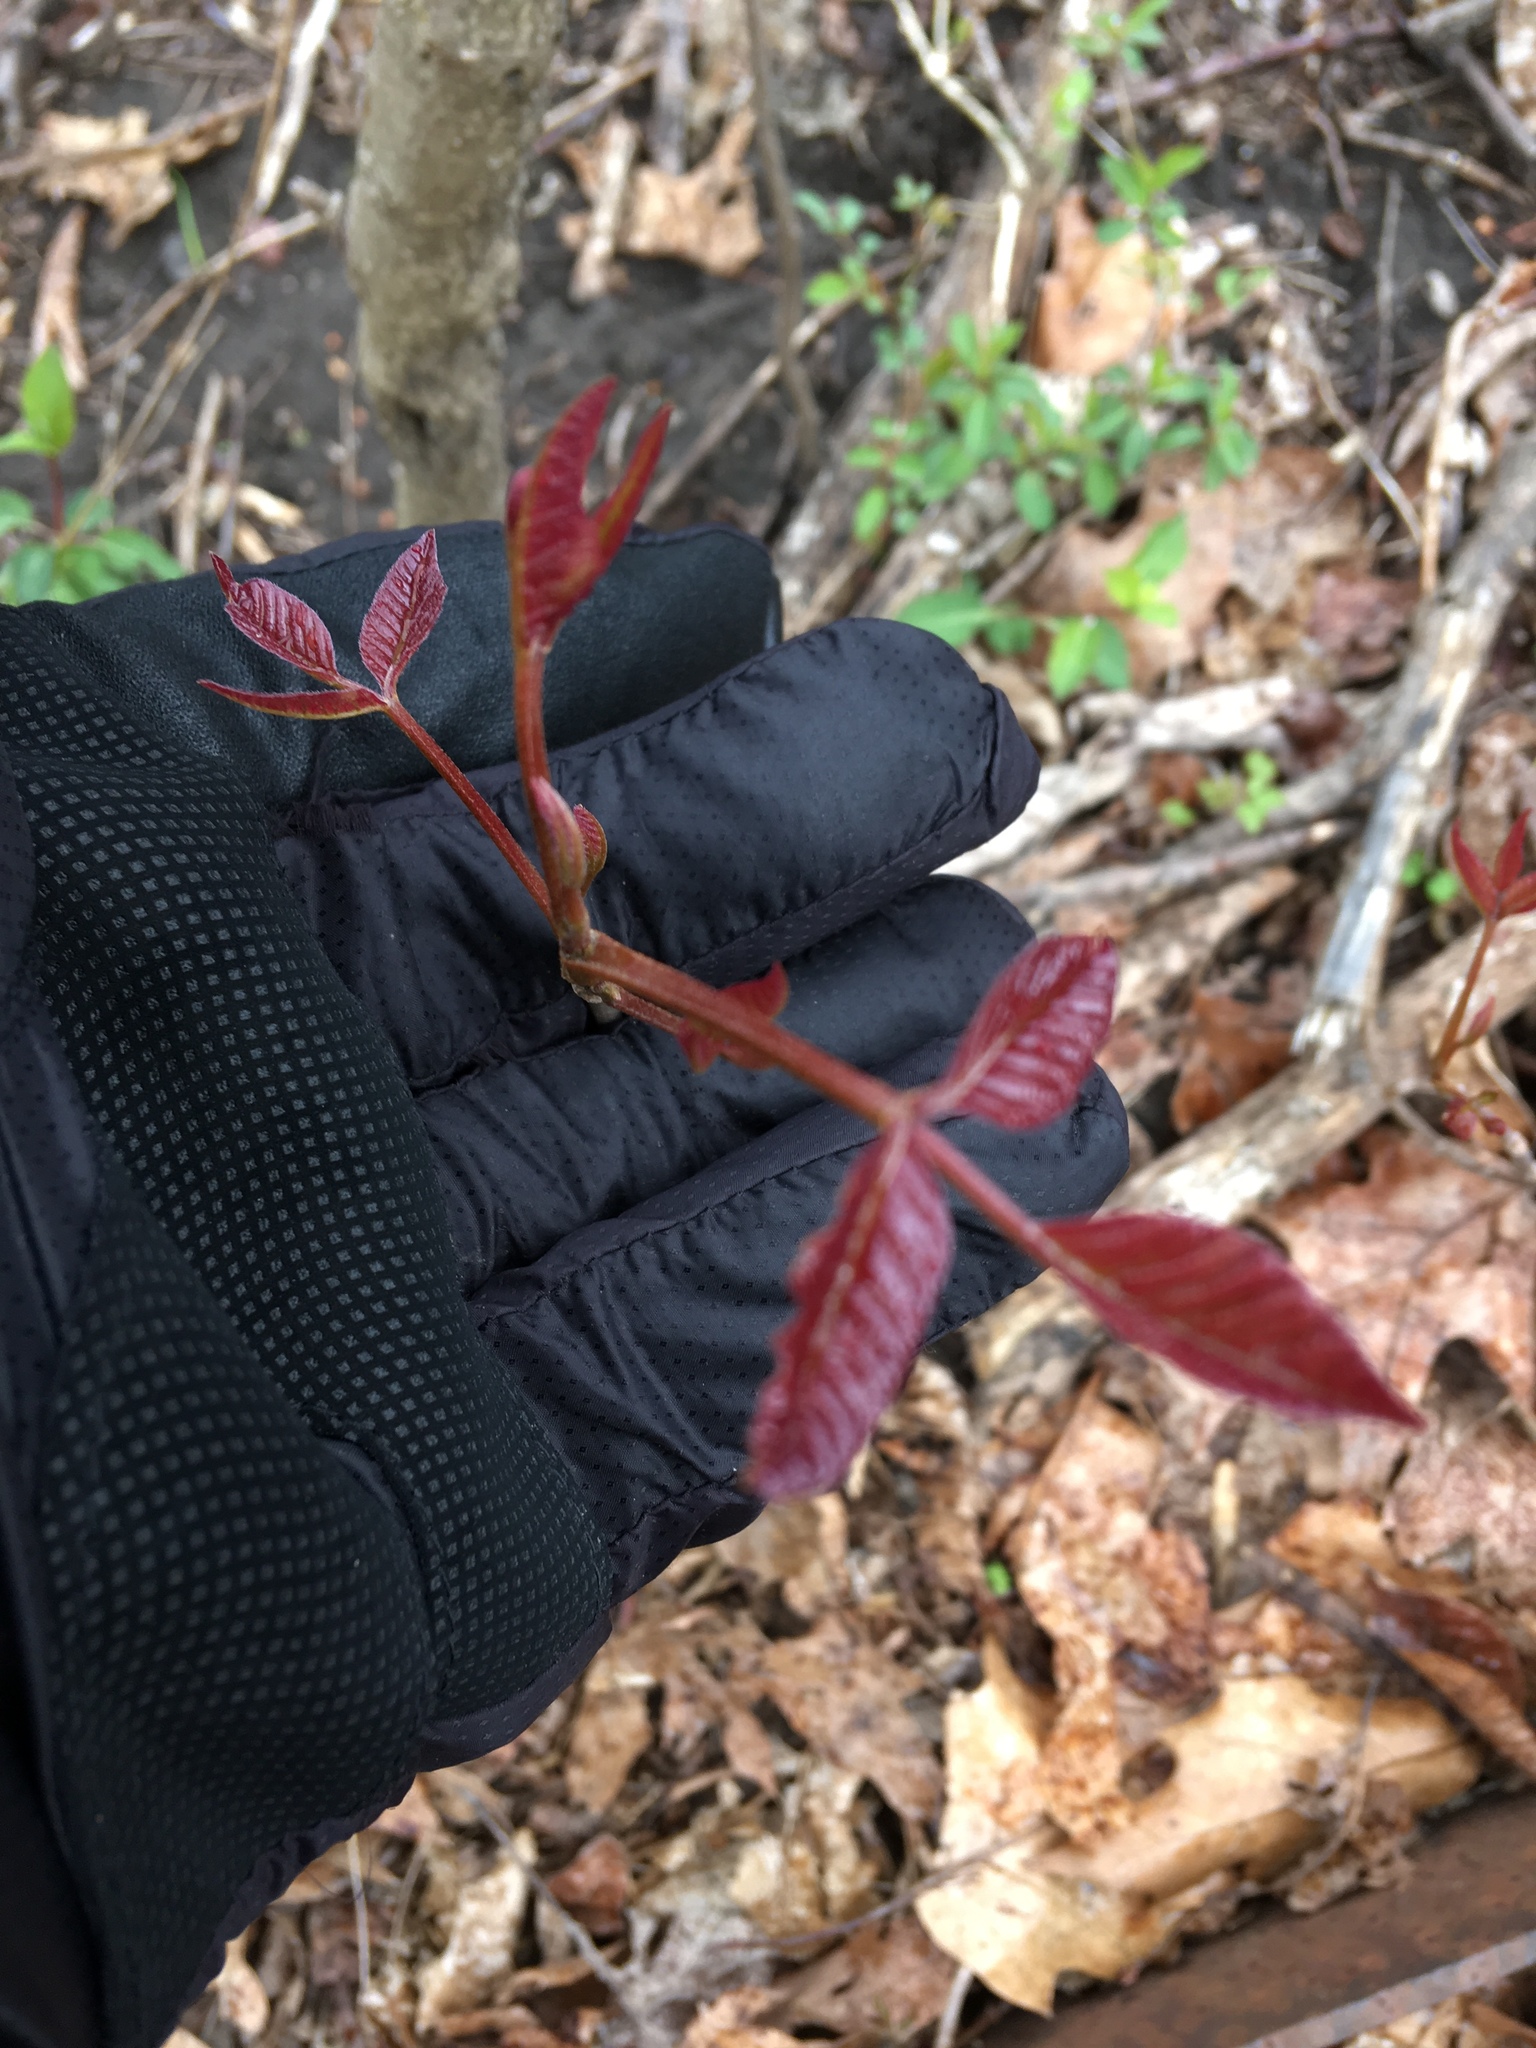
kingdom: Plantae
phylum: Tracheophyta
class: Magnoliopsida
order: Sapindales
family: Anacardiaceae
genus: Toxicodendron
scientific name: Toxicodendron radicans
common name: Poison ivy
